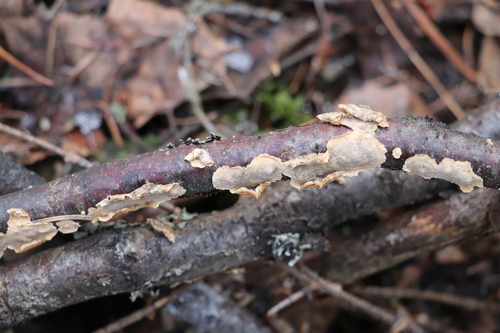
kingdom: Fungi
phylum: Basidiomycota
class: Agaricomycetes
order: Russulales
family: Stereaceae
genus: Stereum
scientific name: Stereum hirsutum
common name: Hairy curtain crust
